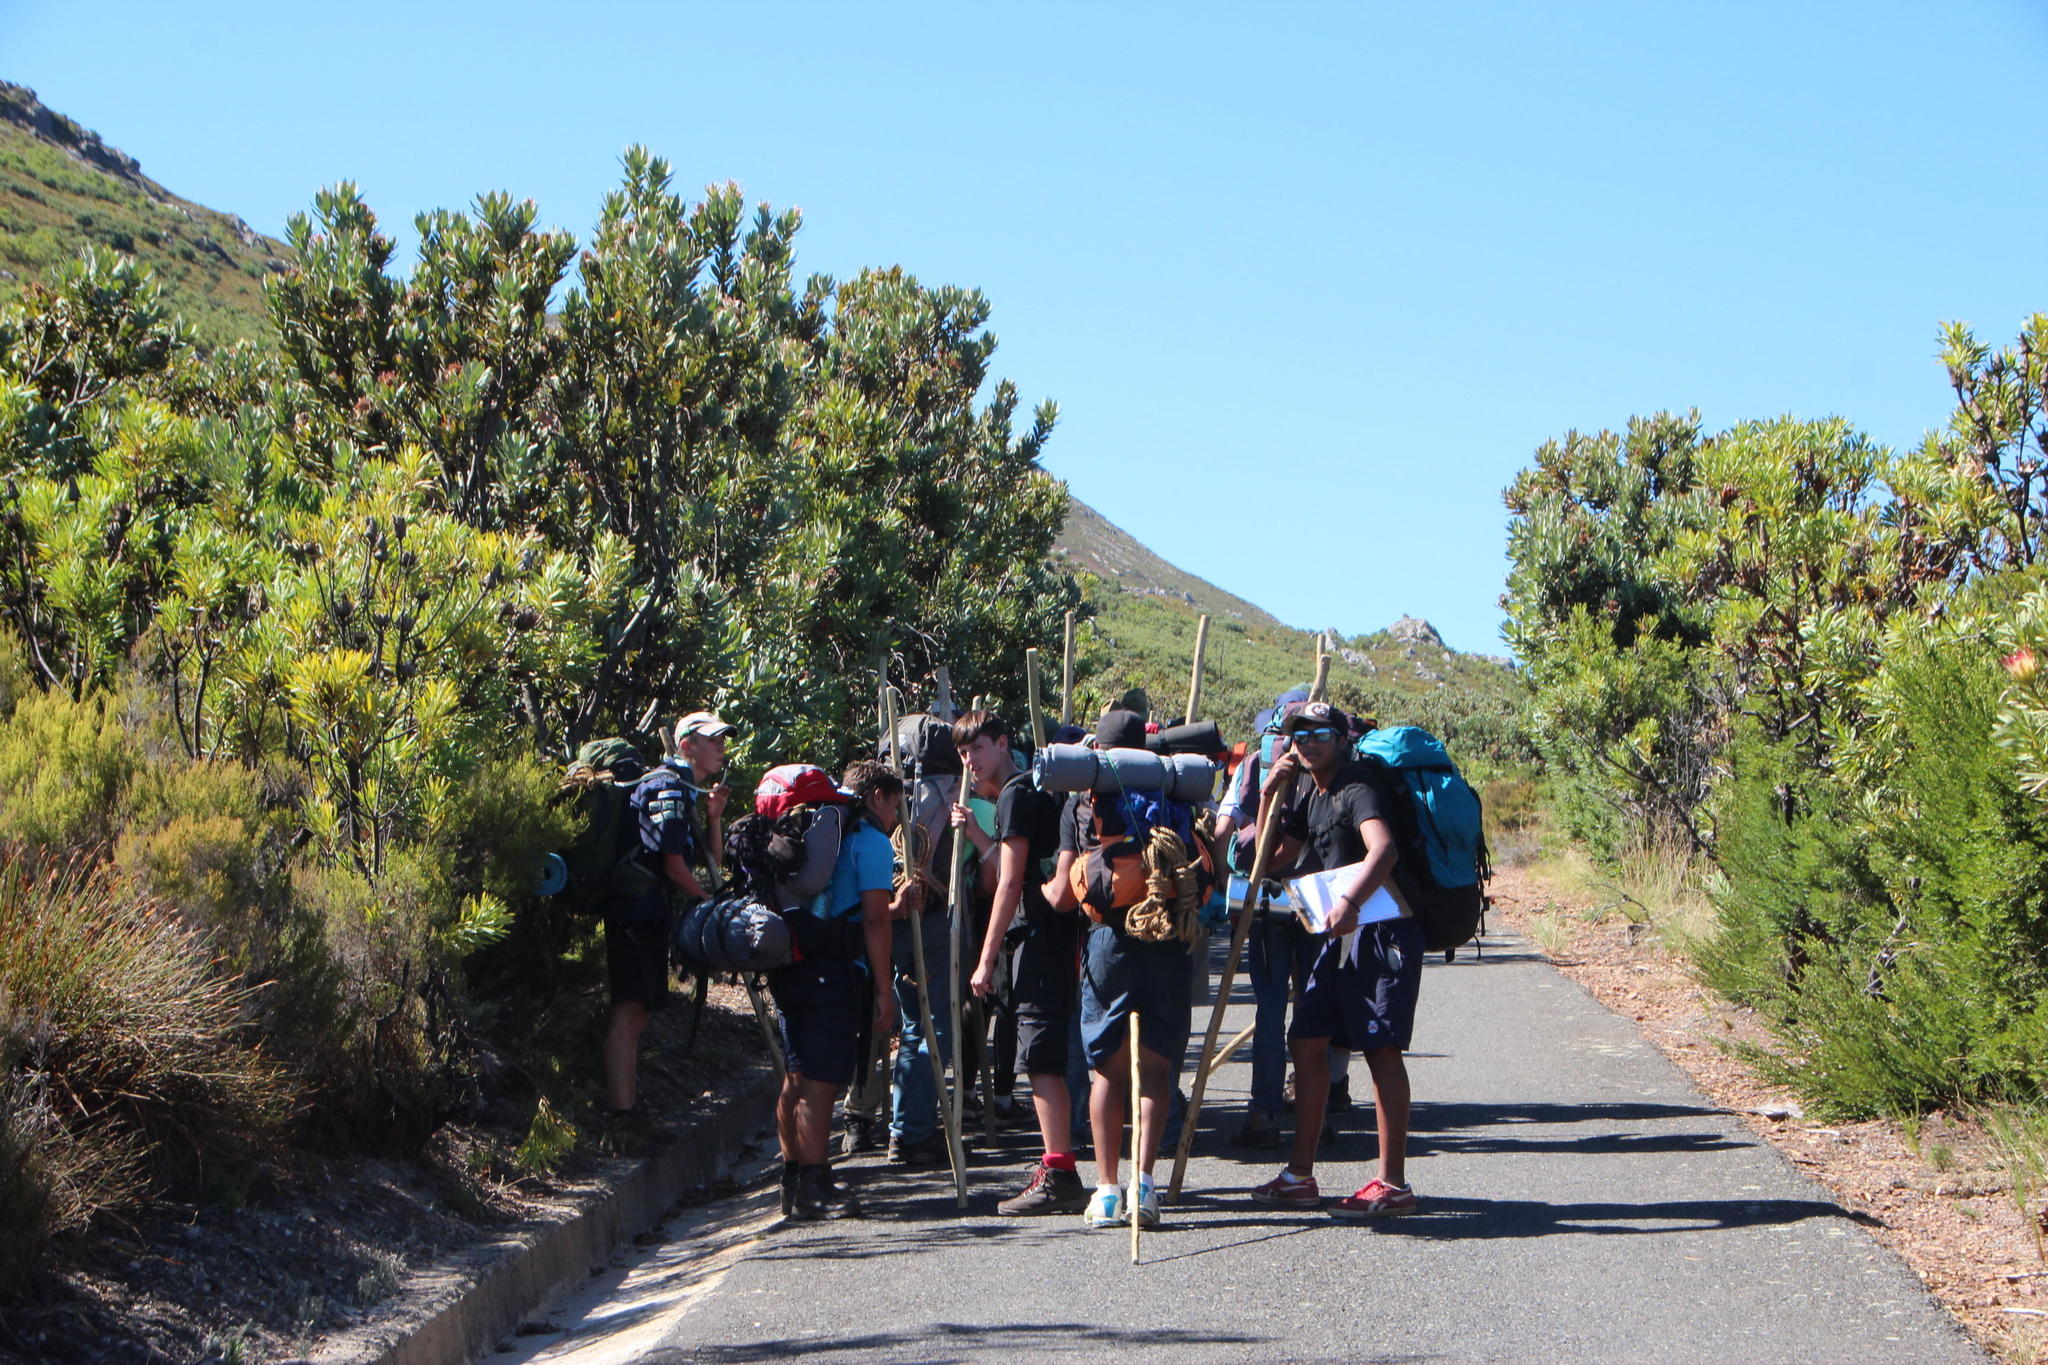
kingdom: Plantae
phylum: Tracheophyta
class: Magnoliopsida
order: Proteales
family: Proteaceae
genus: Protea
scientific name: Protea laurifolia
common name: Grey-leaf sugarbsh
